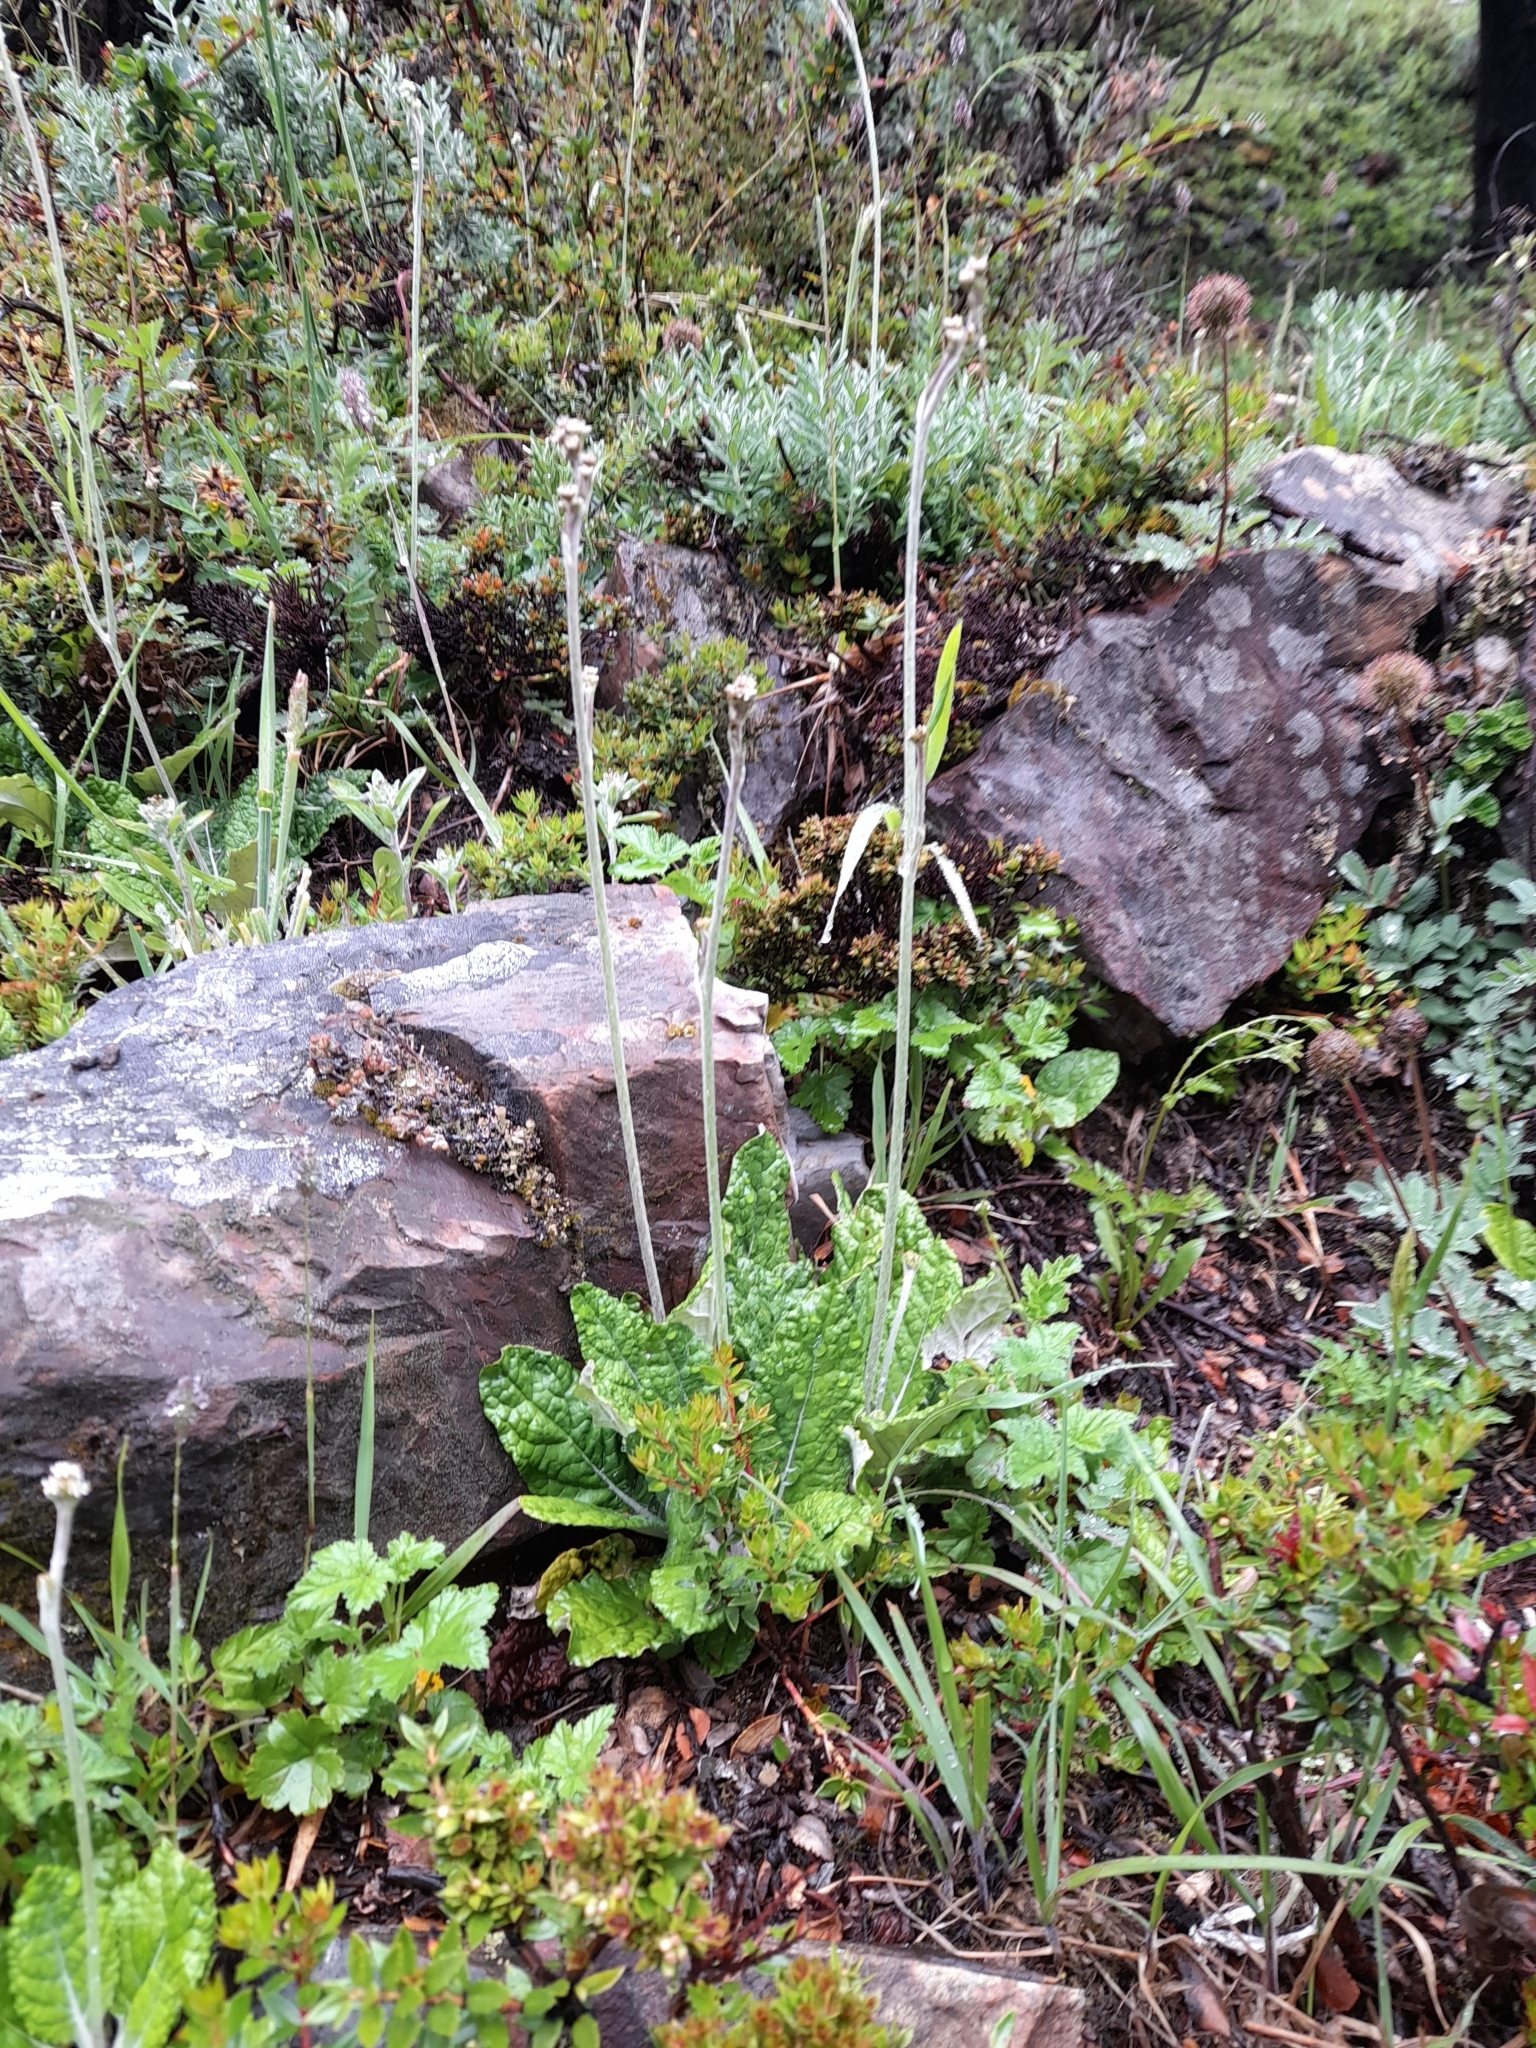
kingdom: Plantae
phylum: Tracheophyta
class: Magnoliopsida
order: Asterales
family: Asteraceae
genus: Adenocaulon
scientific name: Adenocaulon chilense
